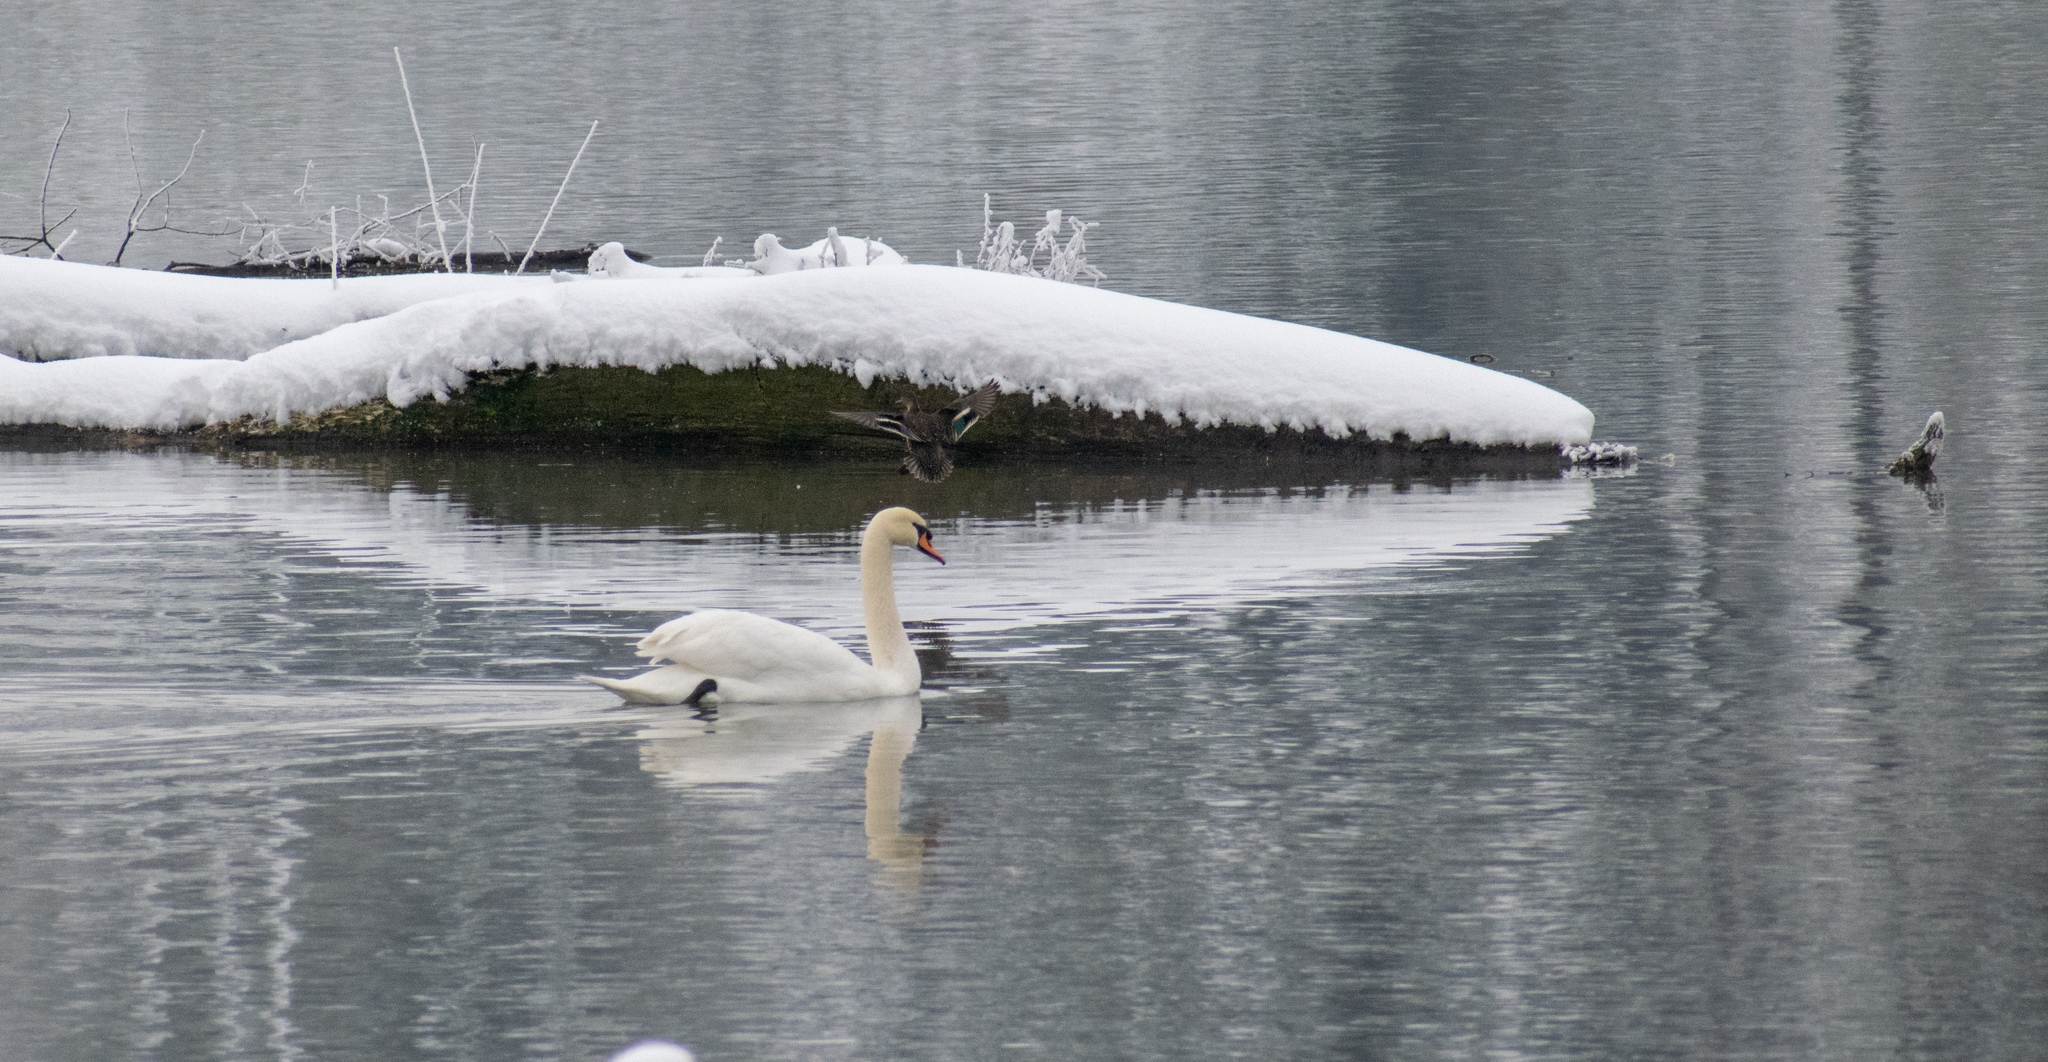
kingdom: Animalia
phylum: Chordata
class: Aves
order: Anseriformes
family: Anatidae
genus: Cygnus
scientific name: Cygnus olor
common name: Mute swan
